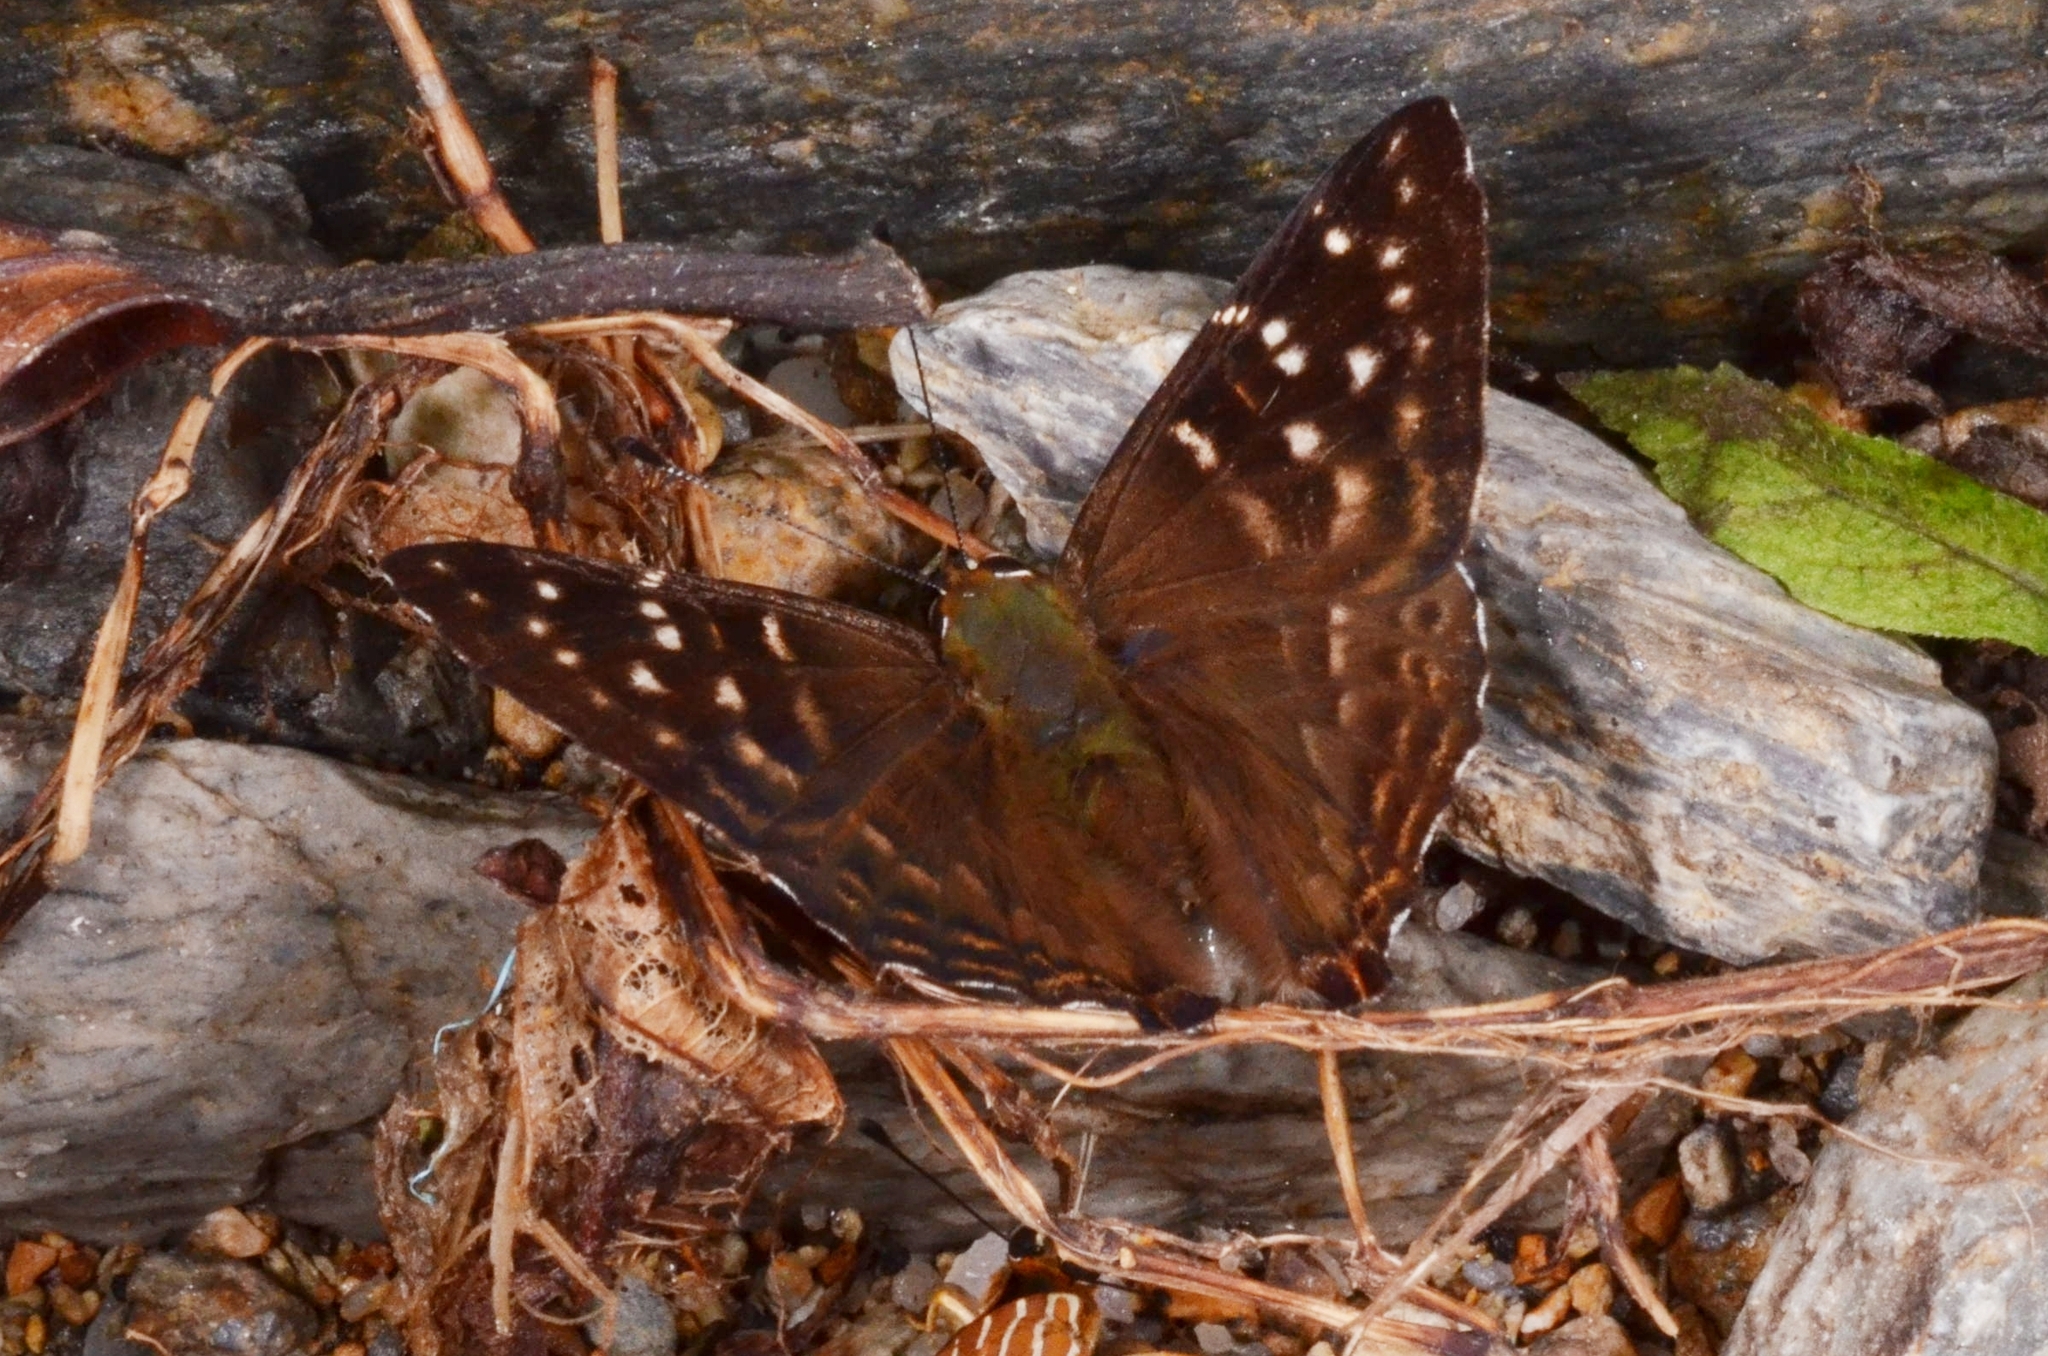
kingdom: Animalia
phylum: Arthropoda
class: Insecta
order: Lepidoptera
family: Lycaenidae
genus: Dodona
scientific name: Dodona eugenes
